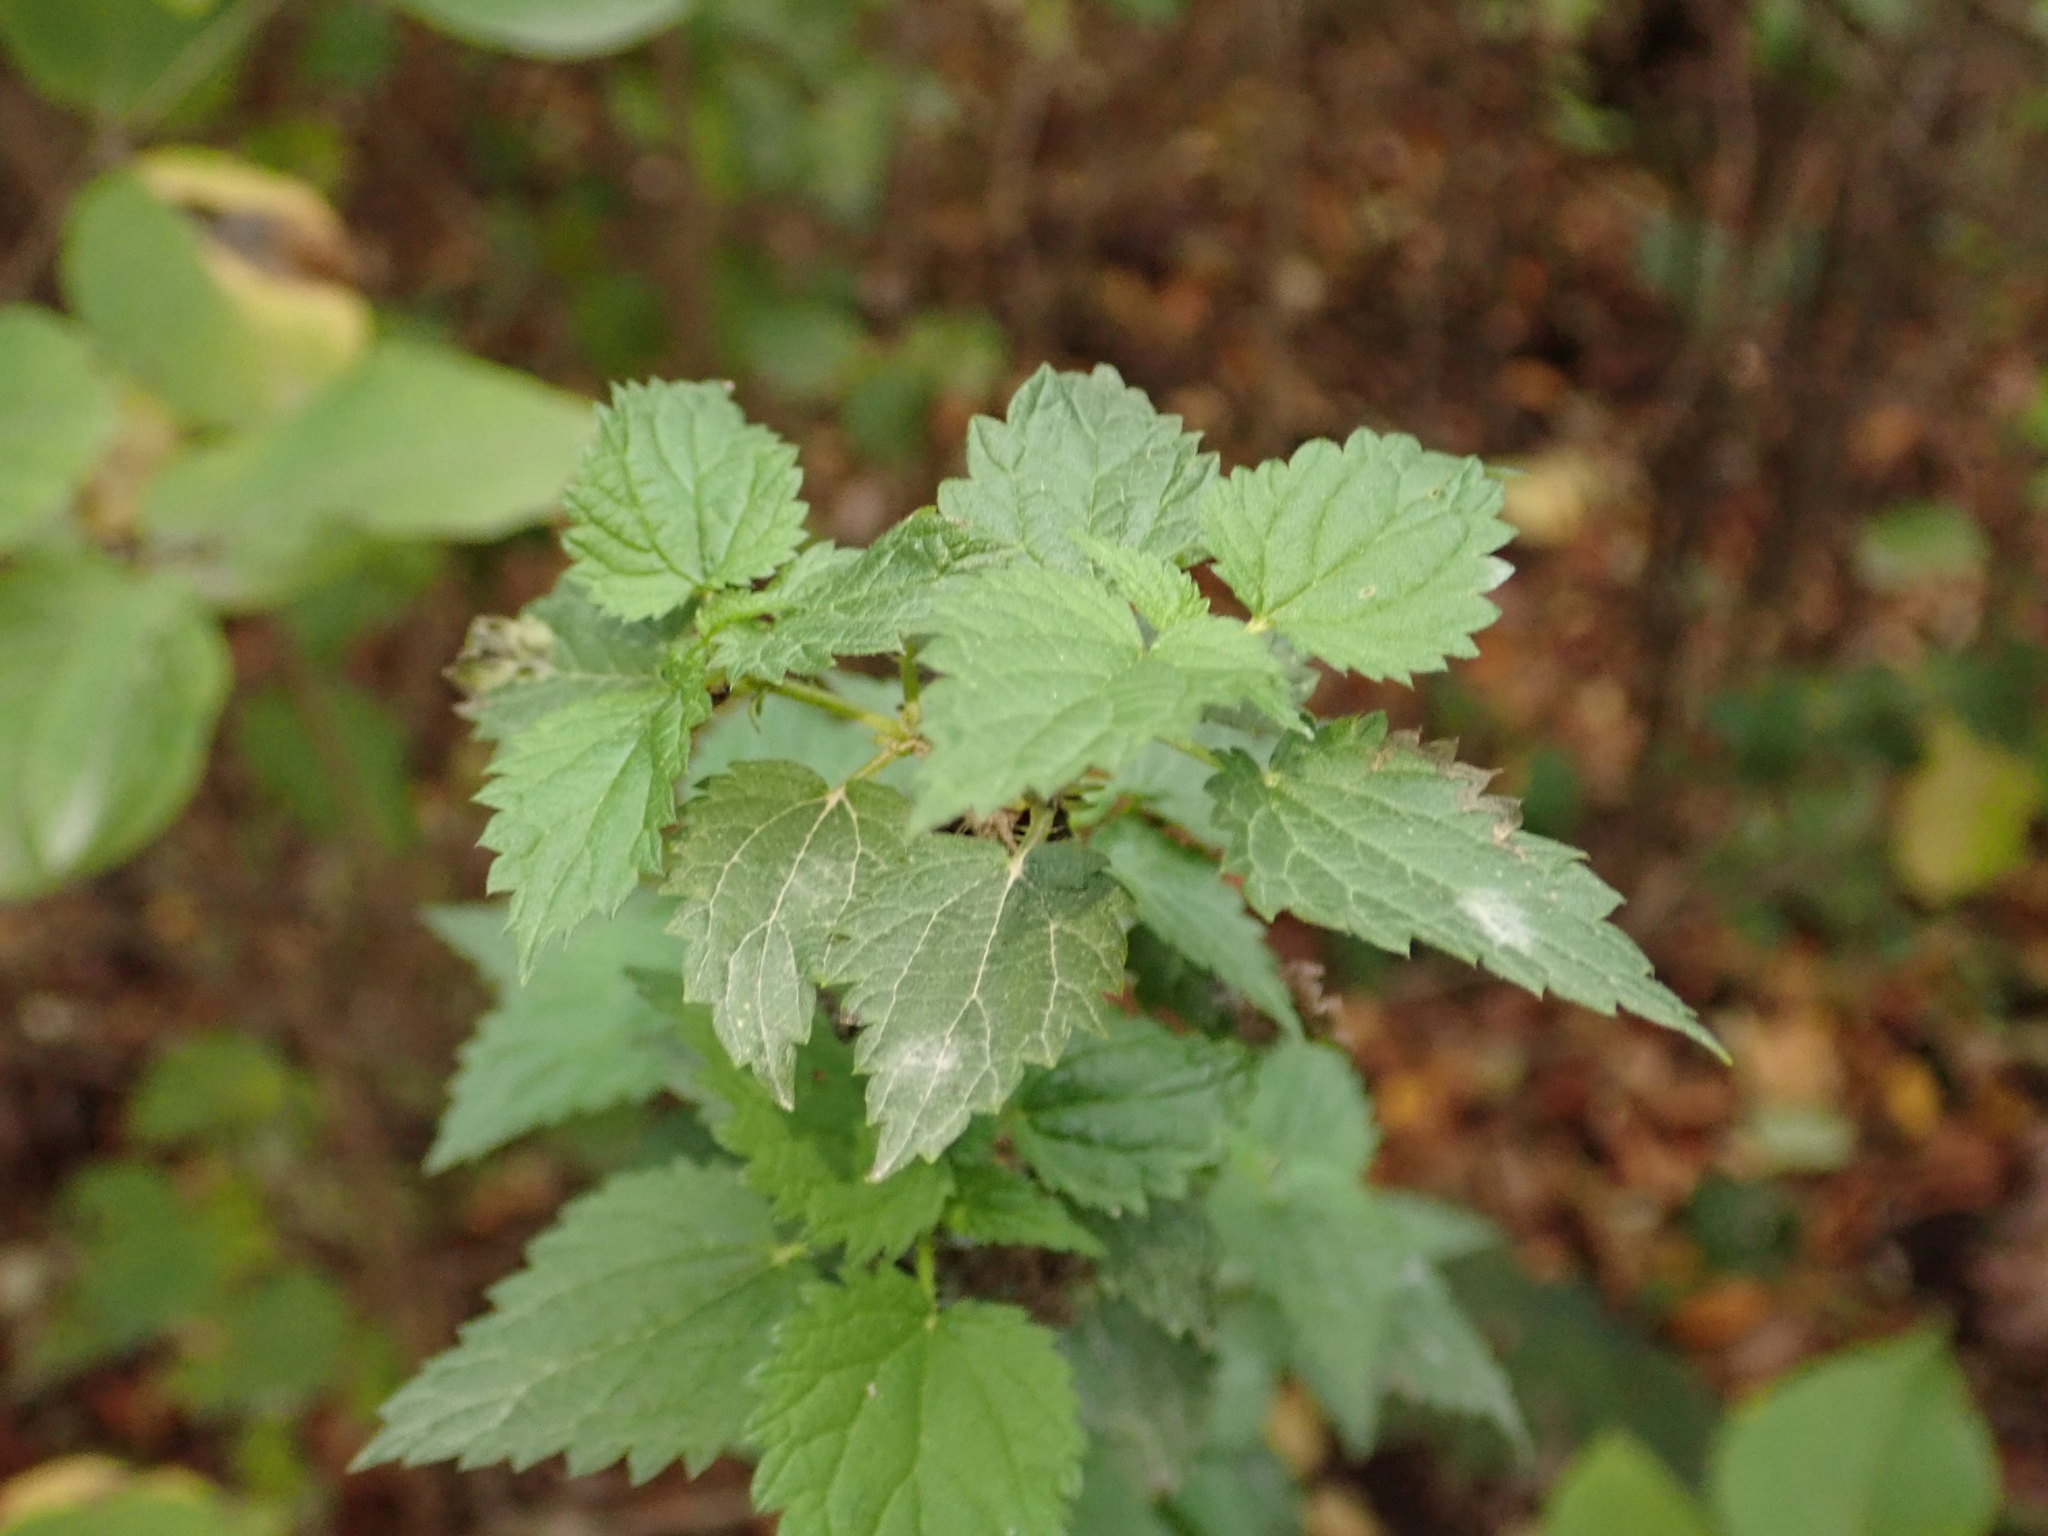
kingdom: Plantae
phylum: Tracheophyta
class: Magnoliopsida
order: Rosales
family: Urticaceae
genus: Urtica
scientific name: Urtica dioica
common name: Common nettle
